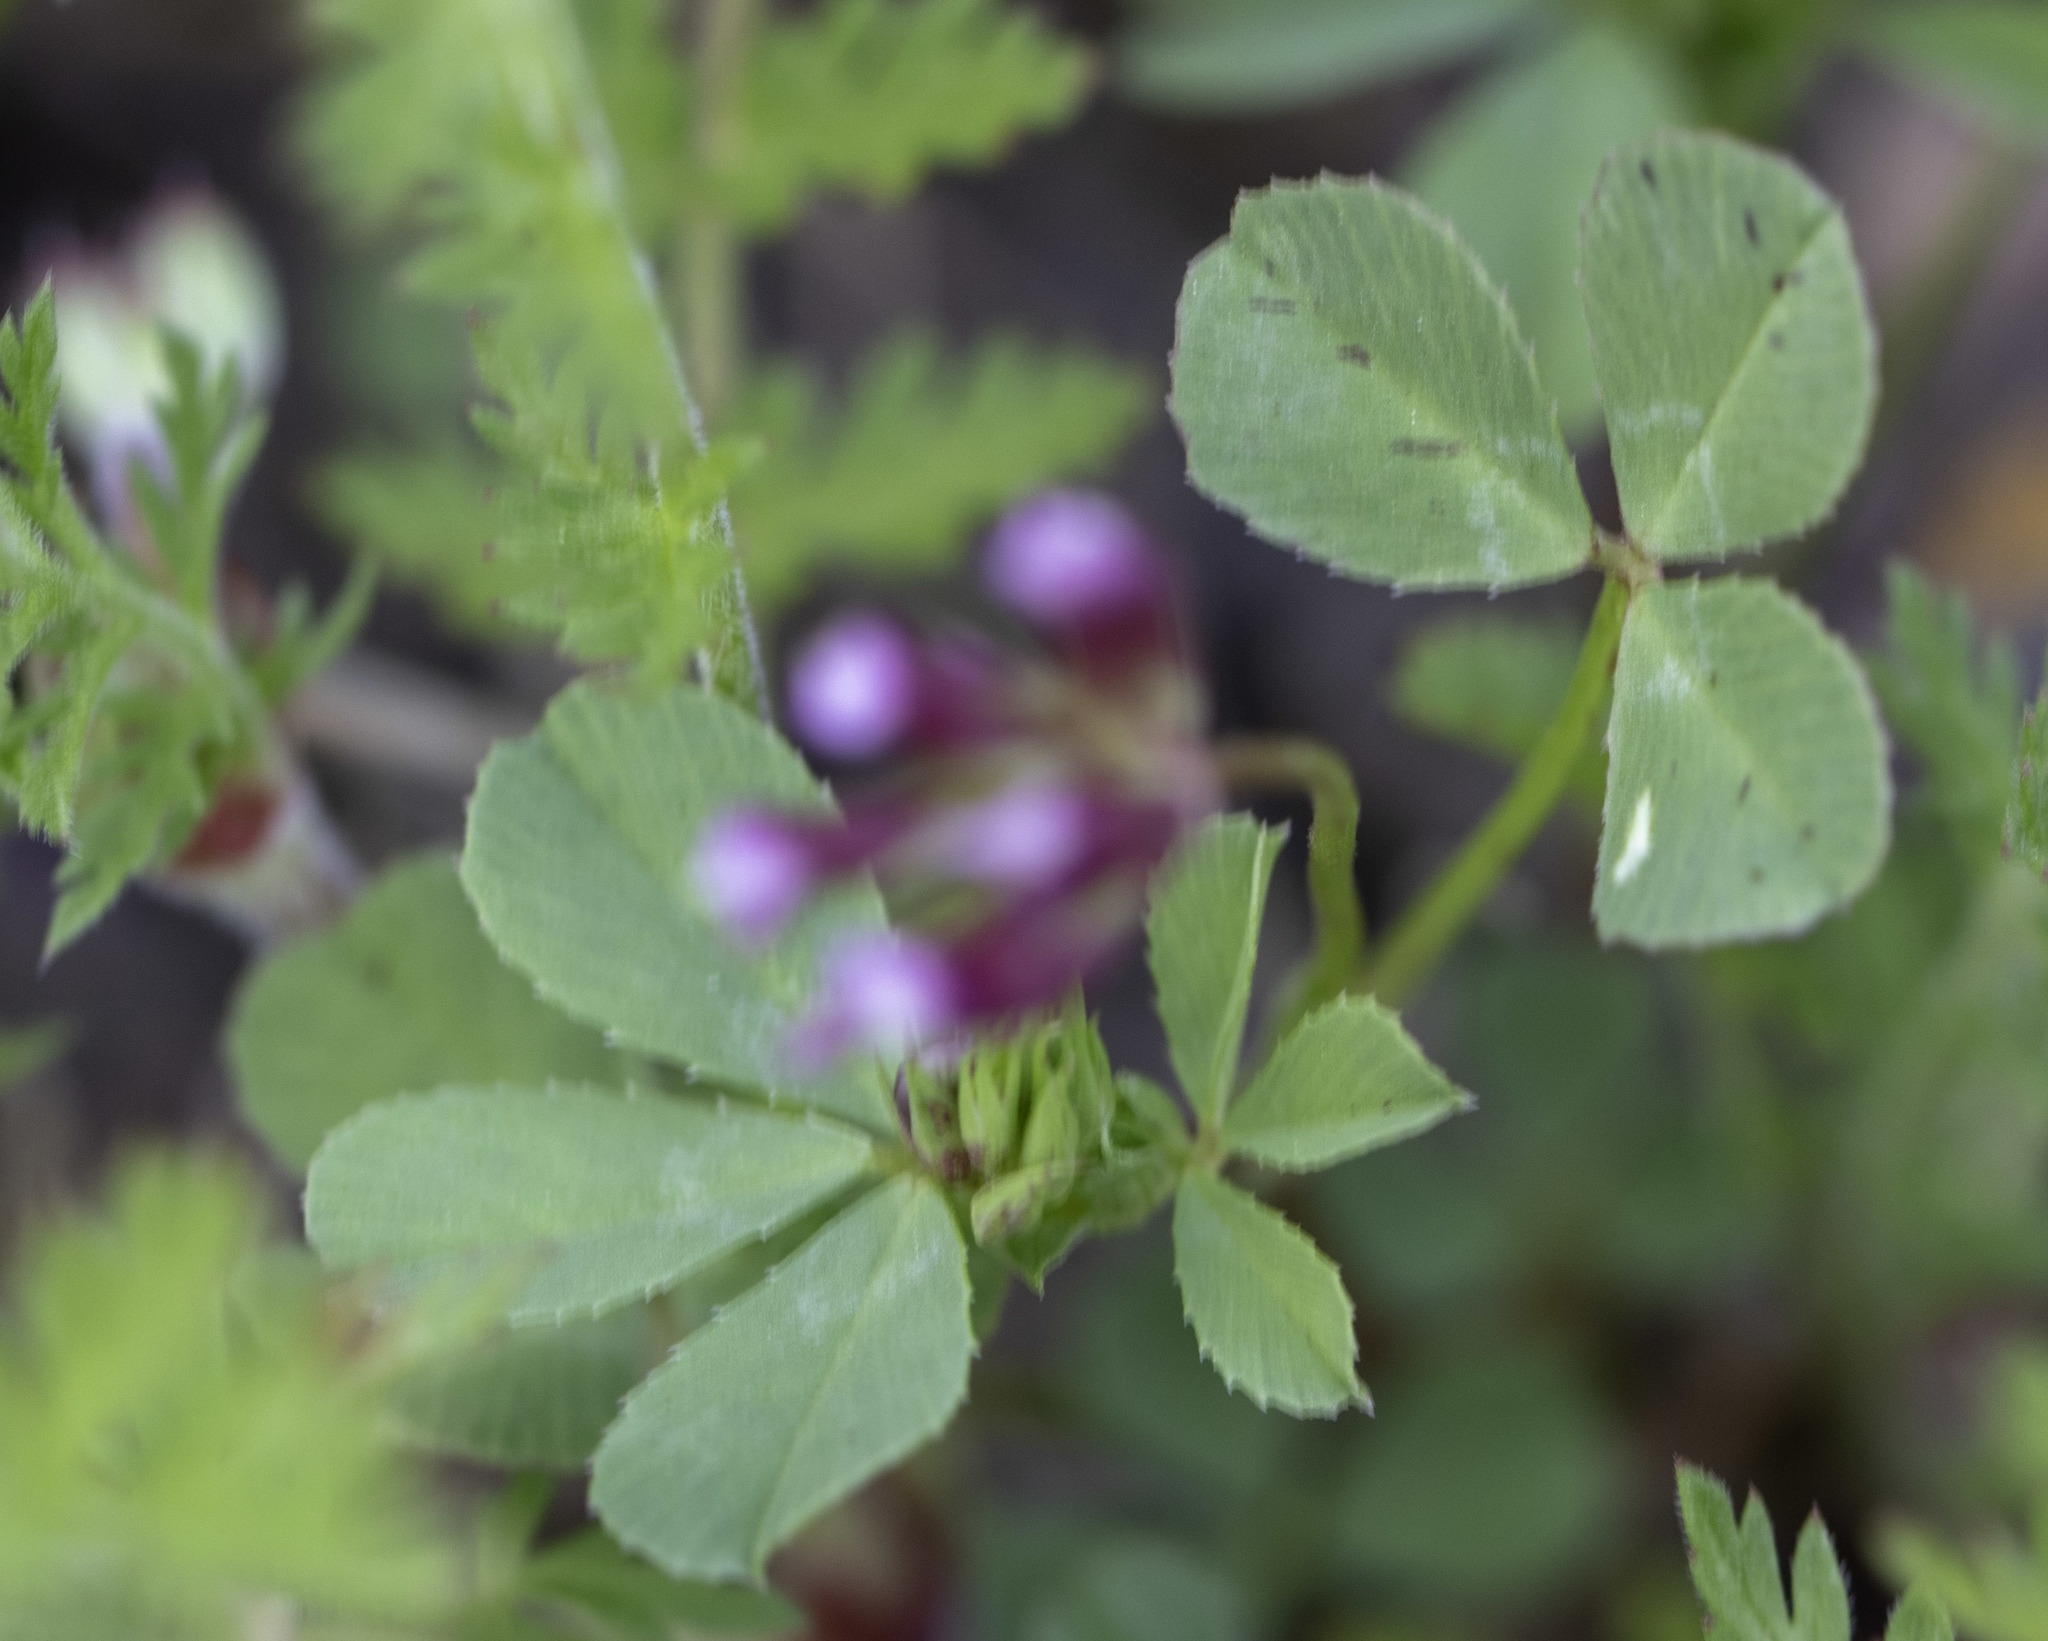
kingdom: Plantae
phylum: Tracheophyta
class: Magnoliopsida
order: Fabales
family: Fabaceae
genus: Trifolium
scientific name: Trifolium gracilentum
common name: Slender clover
